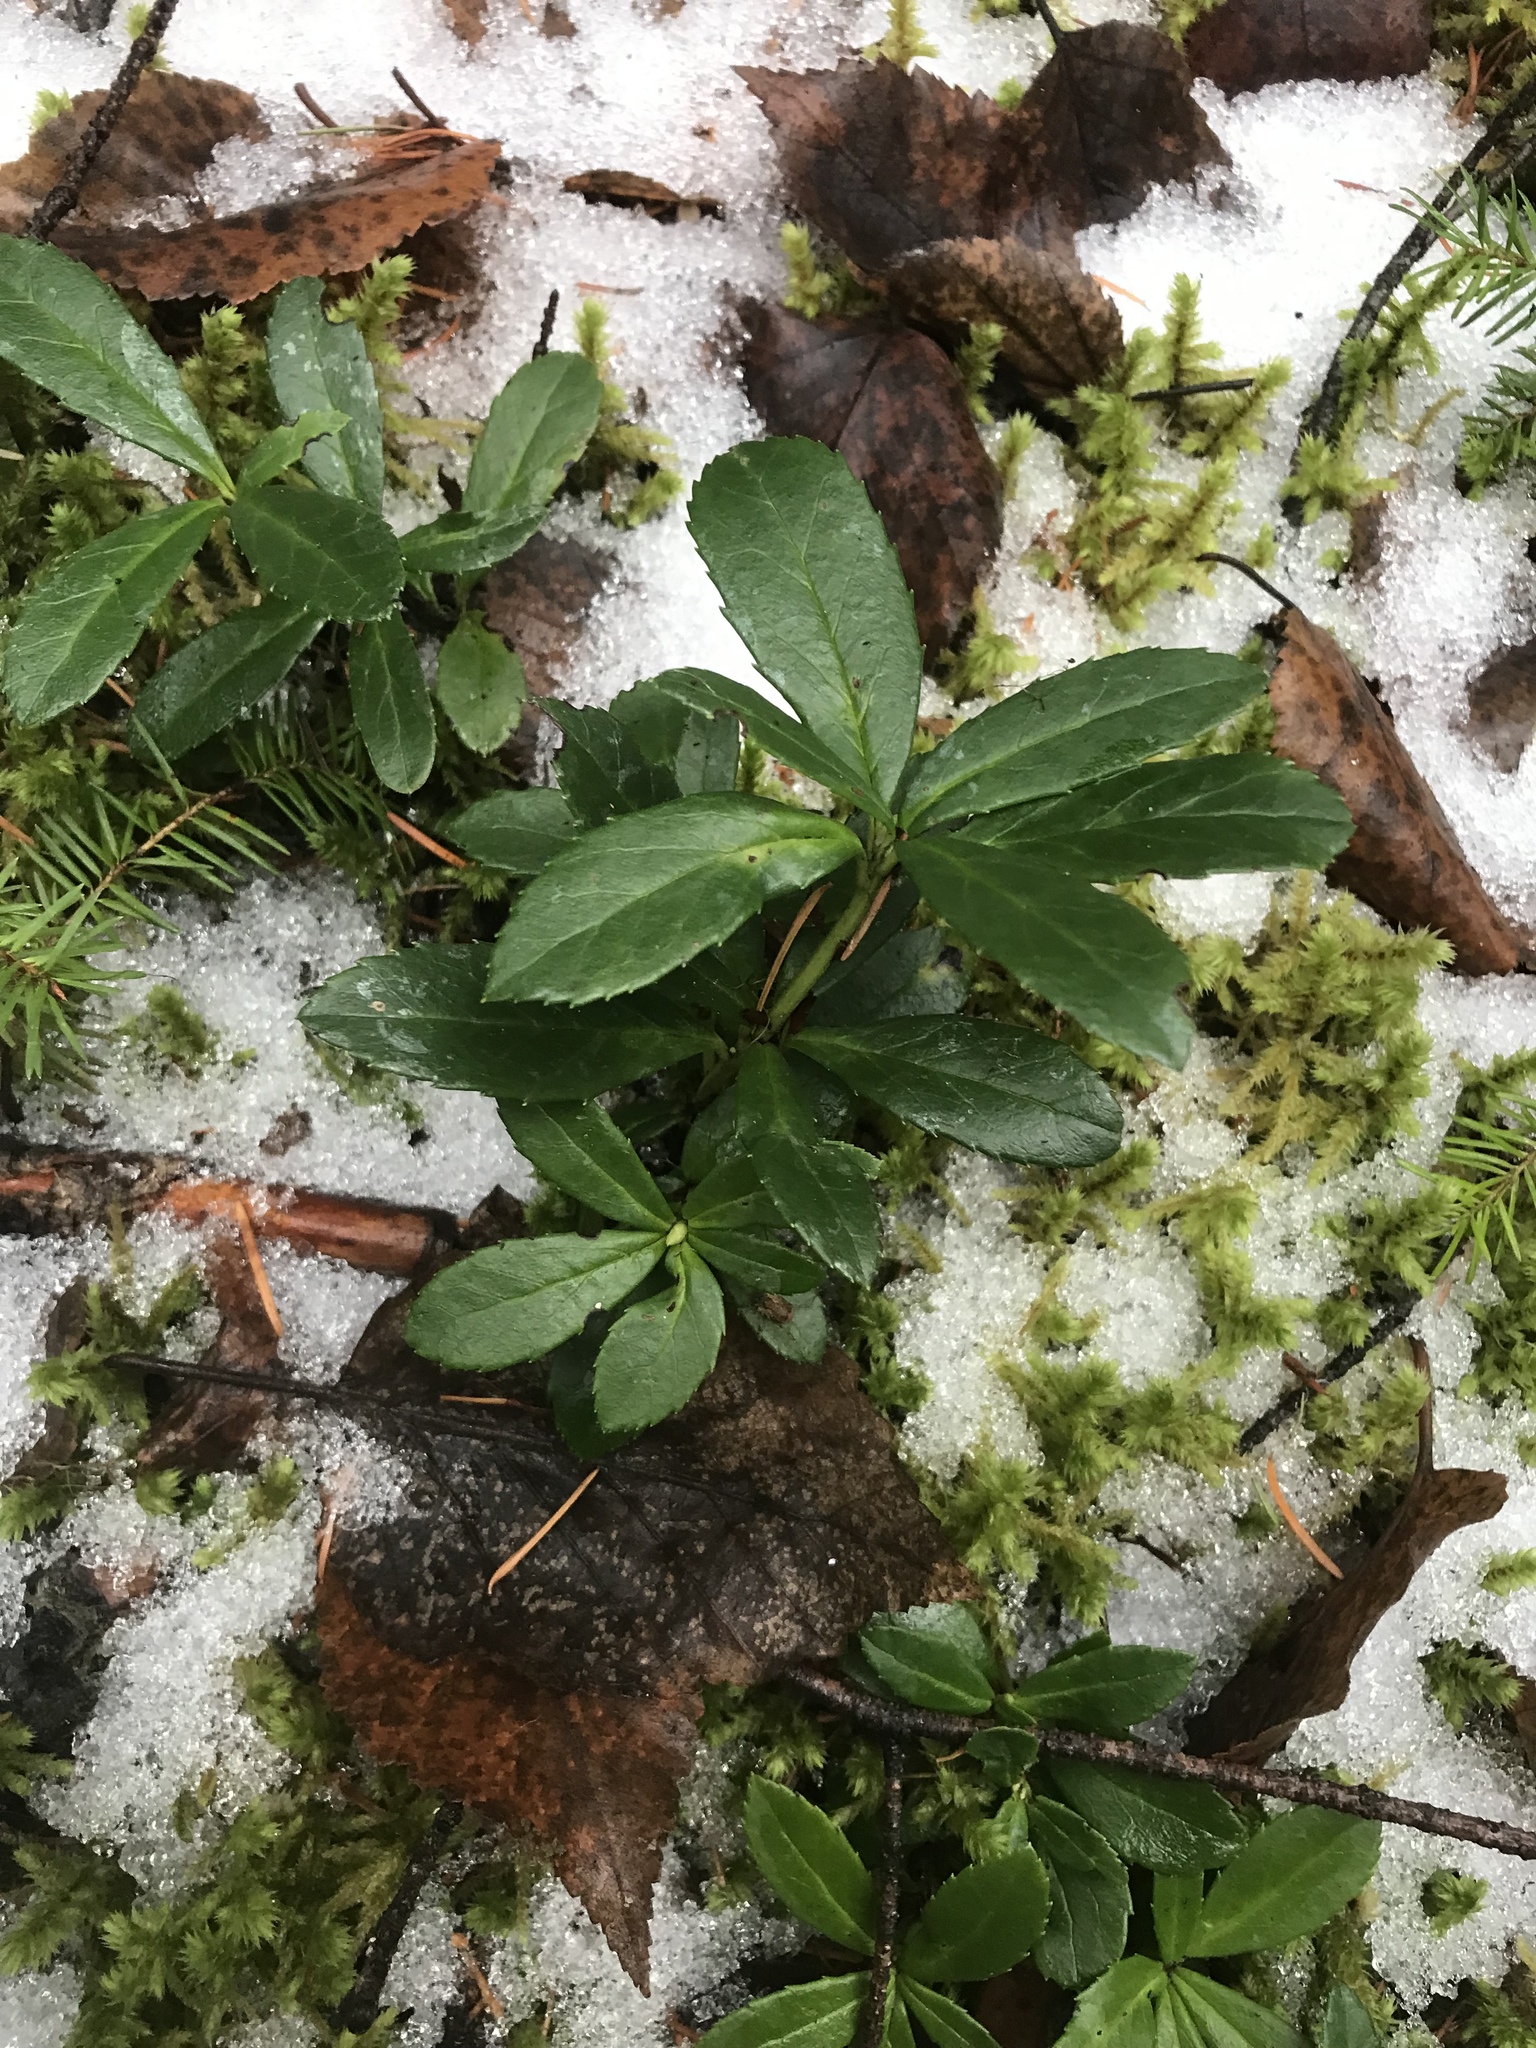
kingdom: Plantae
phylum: Tracheophyta
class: Magnoliopsida
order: Ericales
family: Ericaceae
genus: Chimaphila
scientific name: Chimaphila umbellata
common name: Pipsissewa
